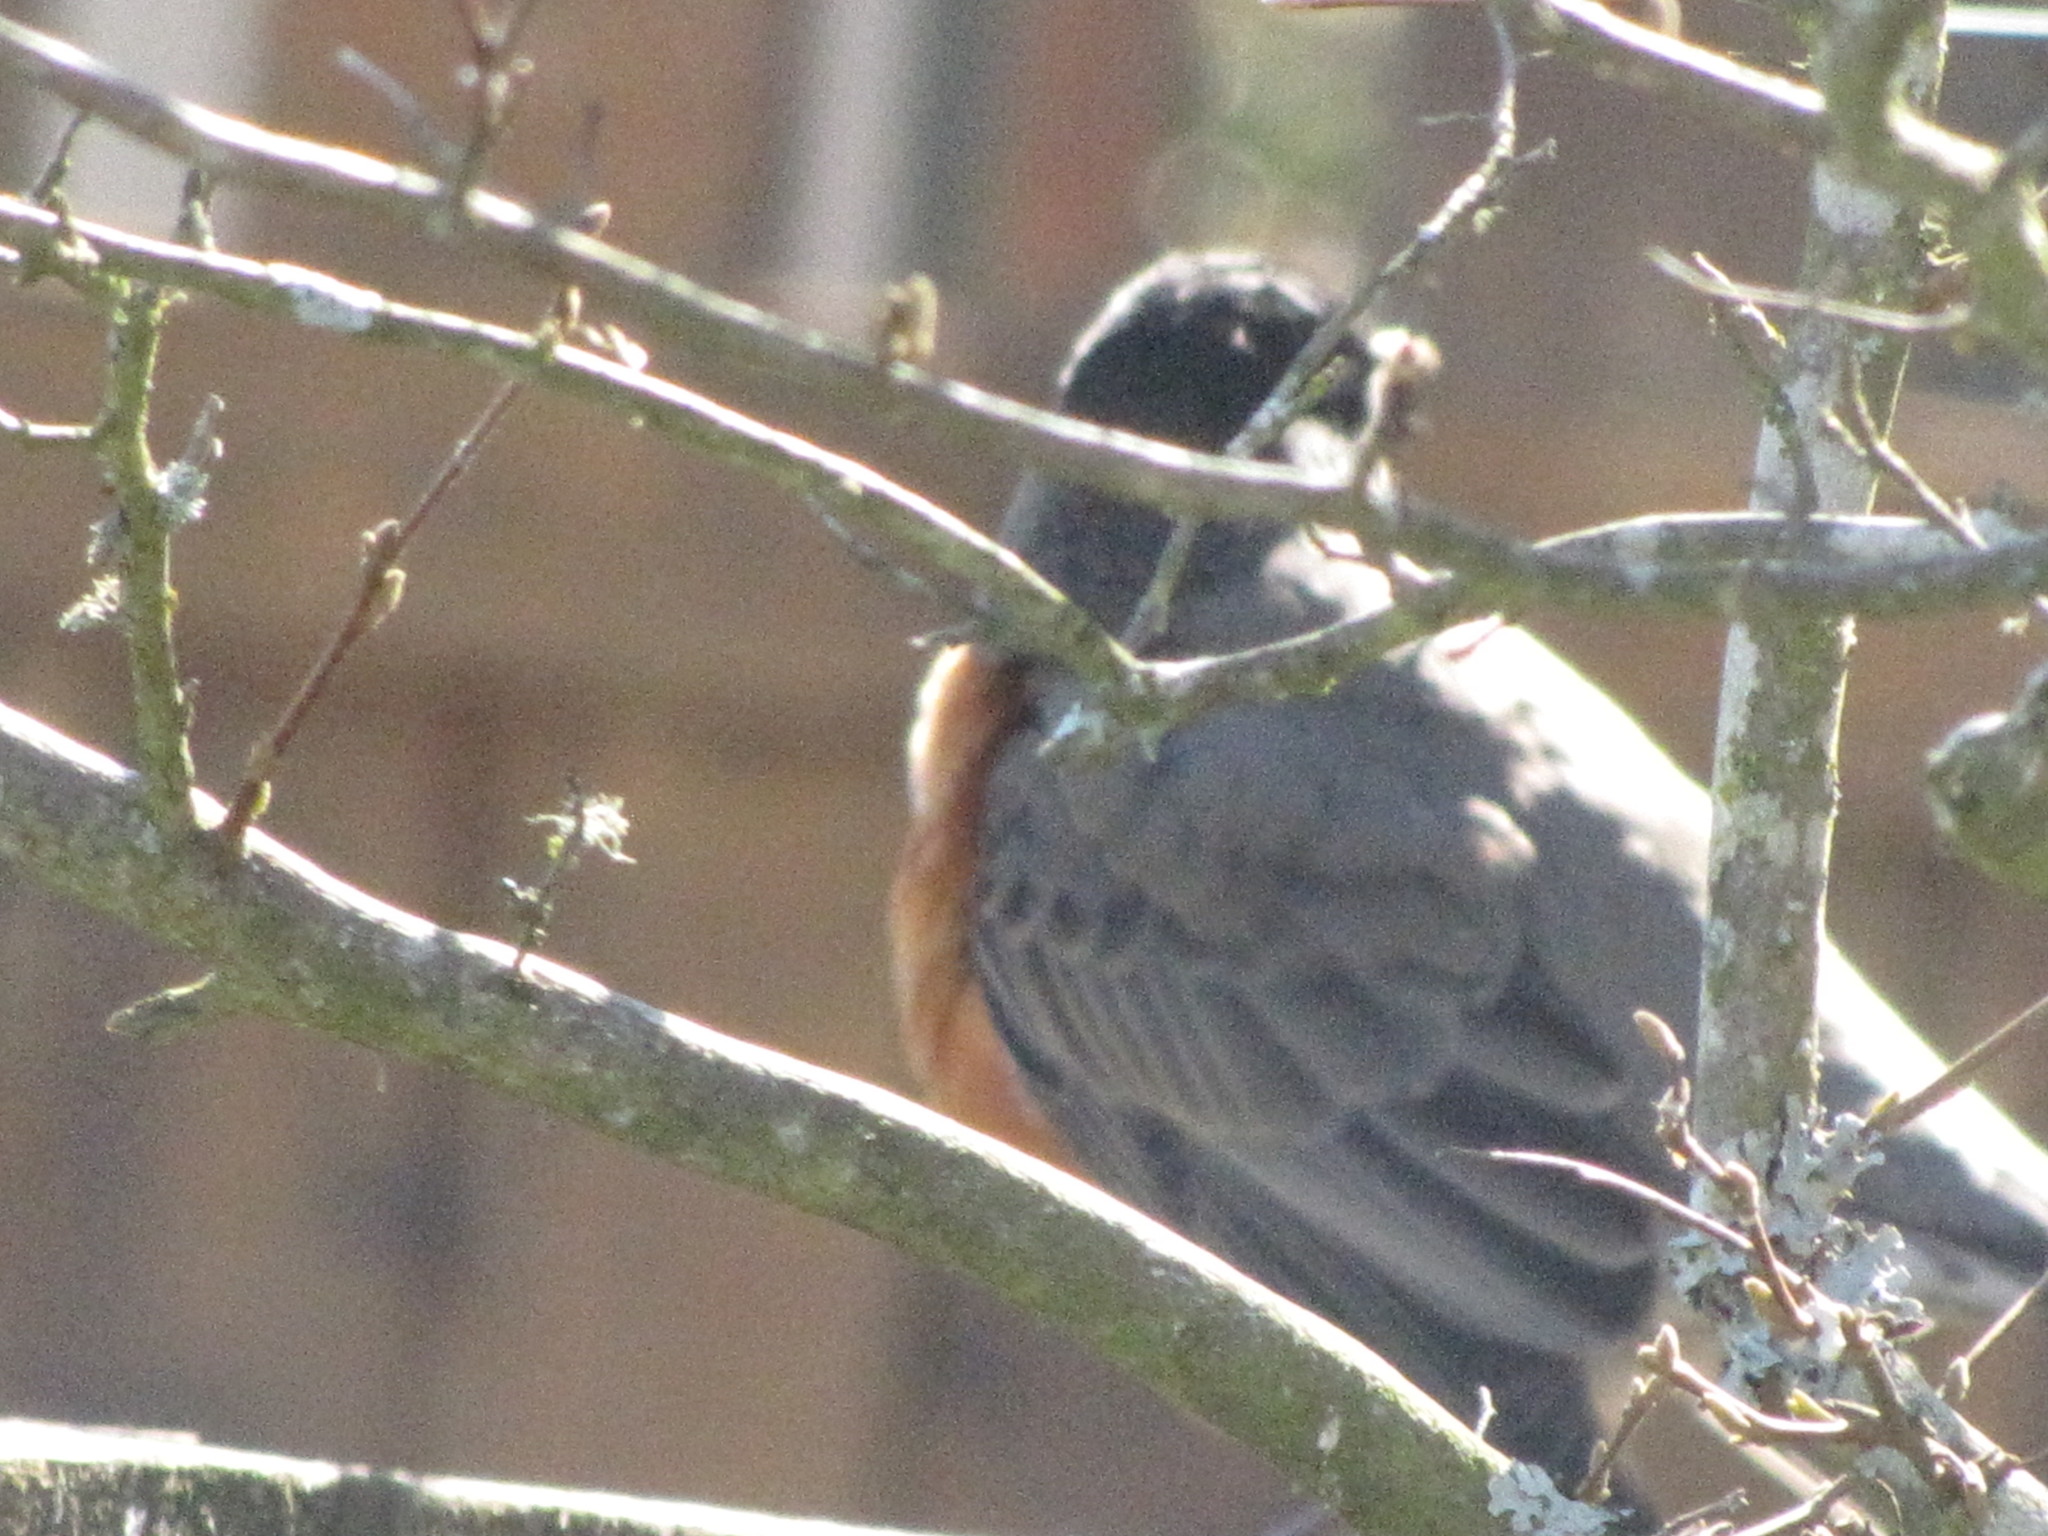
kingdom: Animalia
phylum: Chordata
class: Aves
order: Passeriformes
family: Turdidae
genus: Turdus
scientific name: Turdus migratorius
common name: American robin
